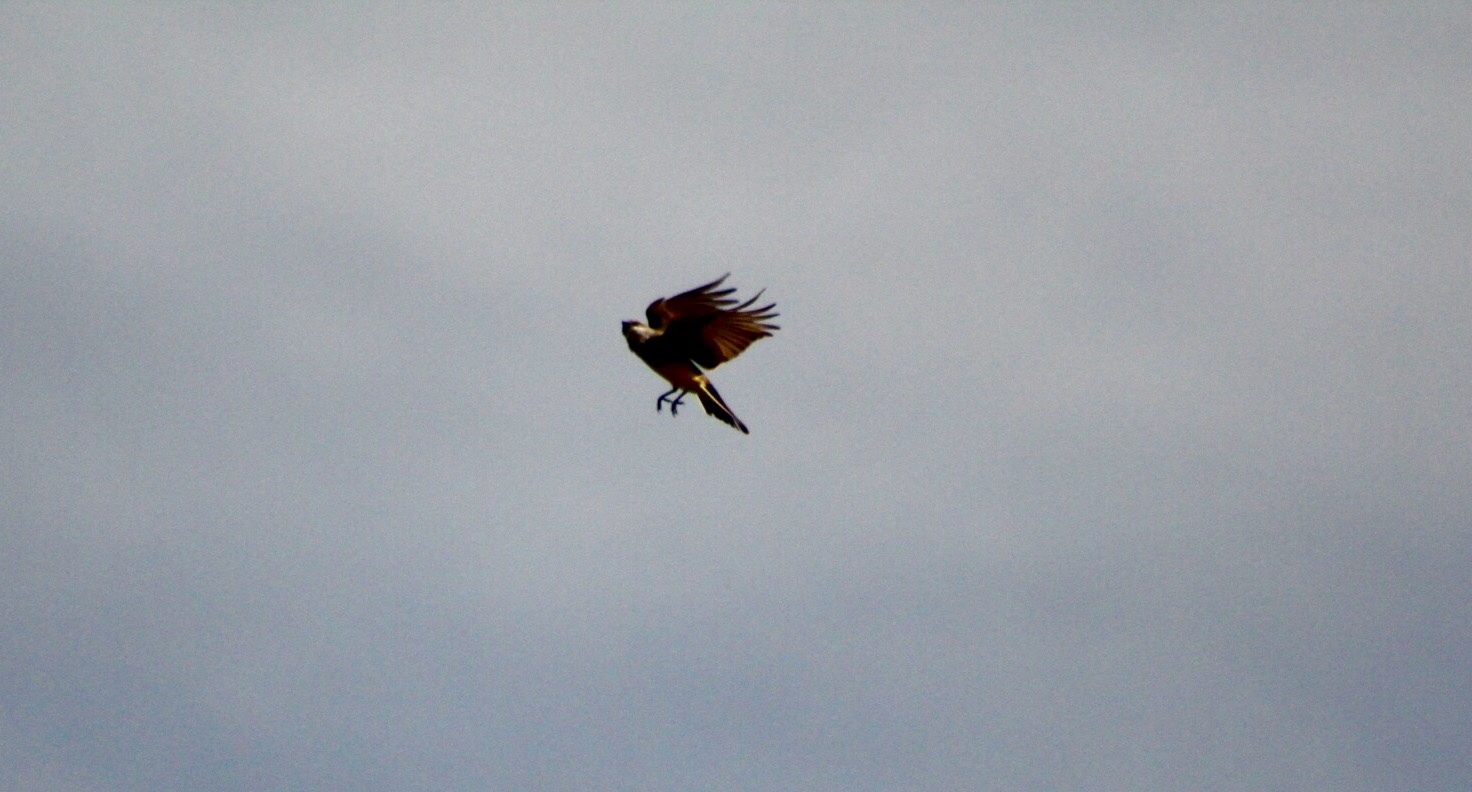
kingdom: Animalia
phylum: Chordata
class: Aves
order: Passeriformes
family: Tyrannidae
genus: Tyrannus
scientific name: Tyrannus verticalis
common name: Western kingbird
